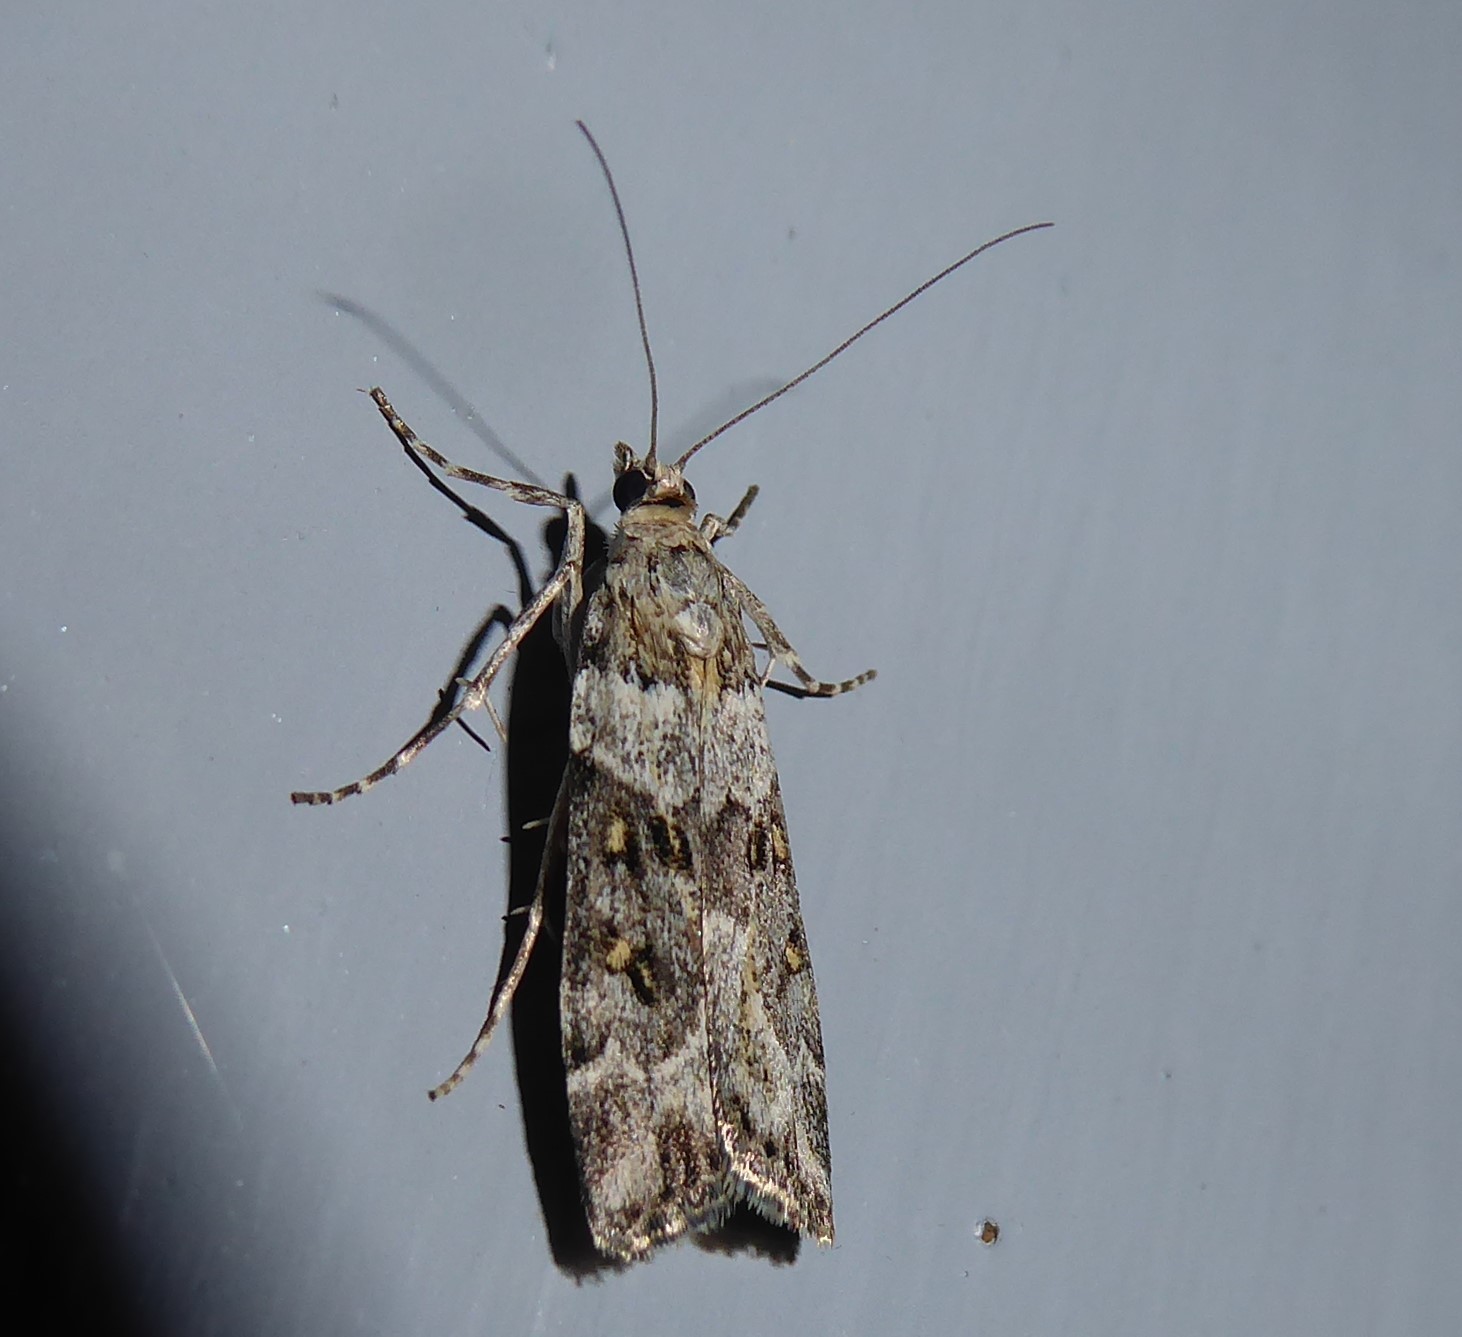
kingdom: Animalia
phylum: Arthropoda
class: Insecta
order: Lepidoptera
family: Crambidae
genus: Eudonia
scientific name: Eudonia diphtheralis
